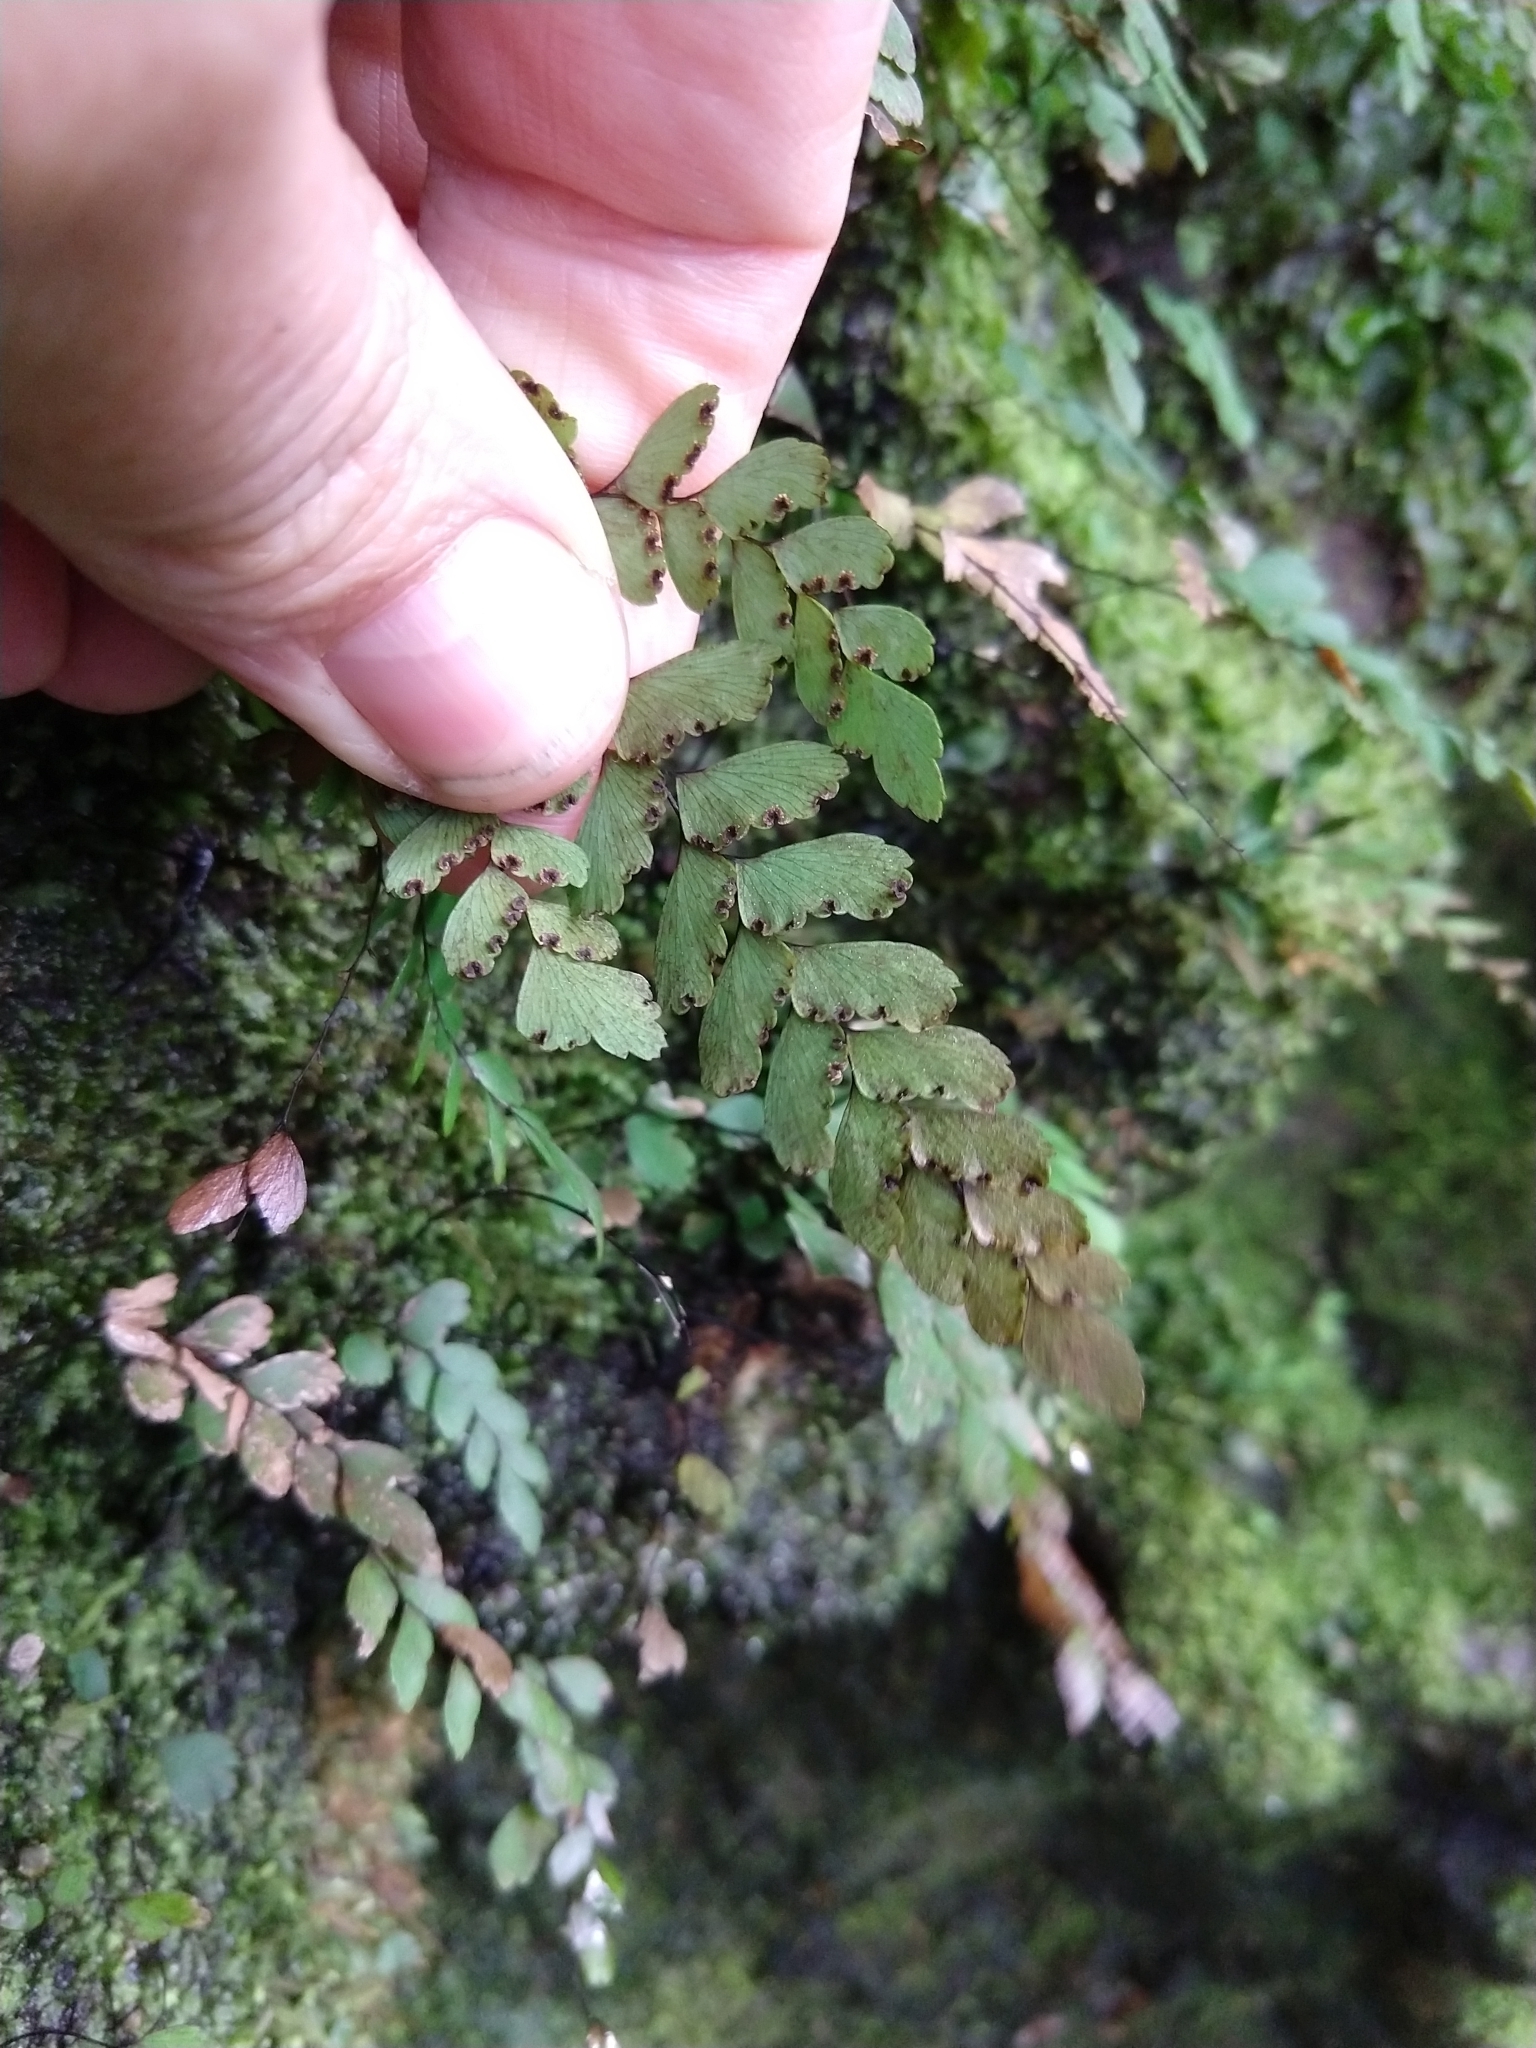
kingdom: Plantae
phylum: Tracheophyta
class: Polypodiopsida
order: Polypodiales
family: Pteridaceae
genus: Adiantum
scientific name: Adiantum cunninghamii
